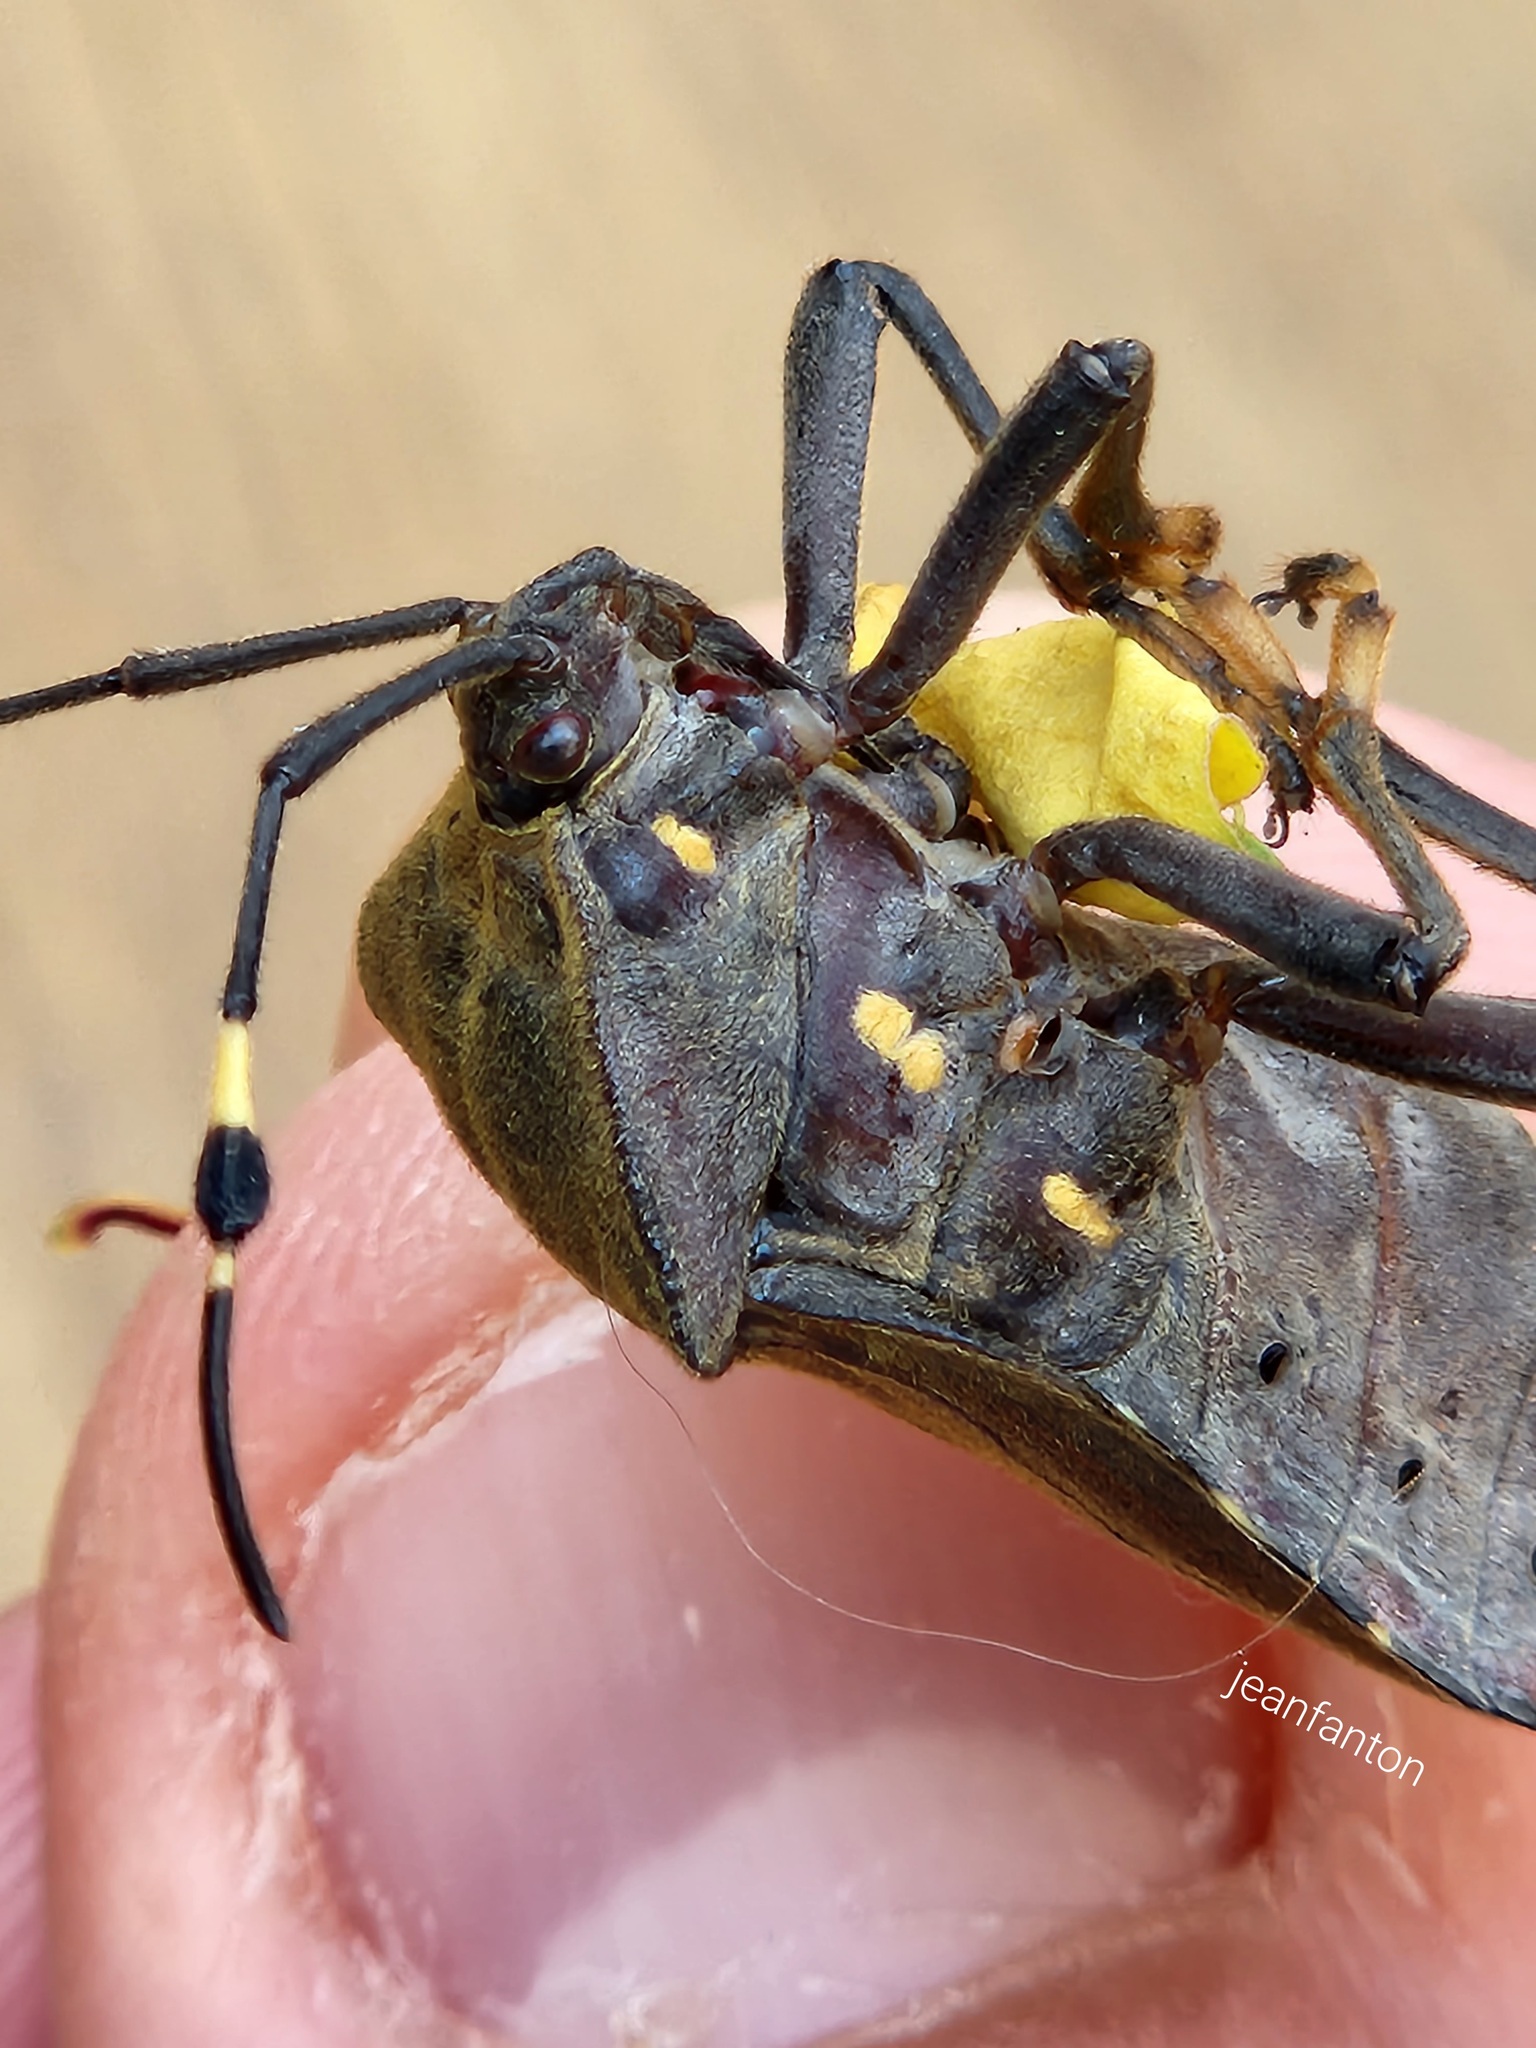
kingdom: Animalia
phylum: Arthropoda
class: Insecta
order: Hemiptera
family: Coreidae
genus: Pachylis
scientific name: Pachylis laticornis
